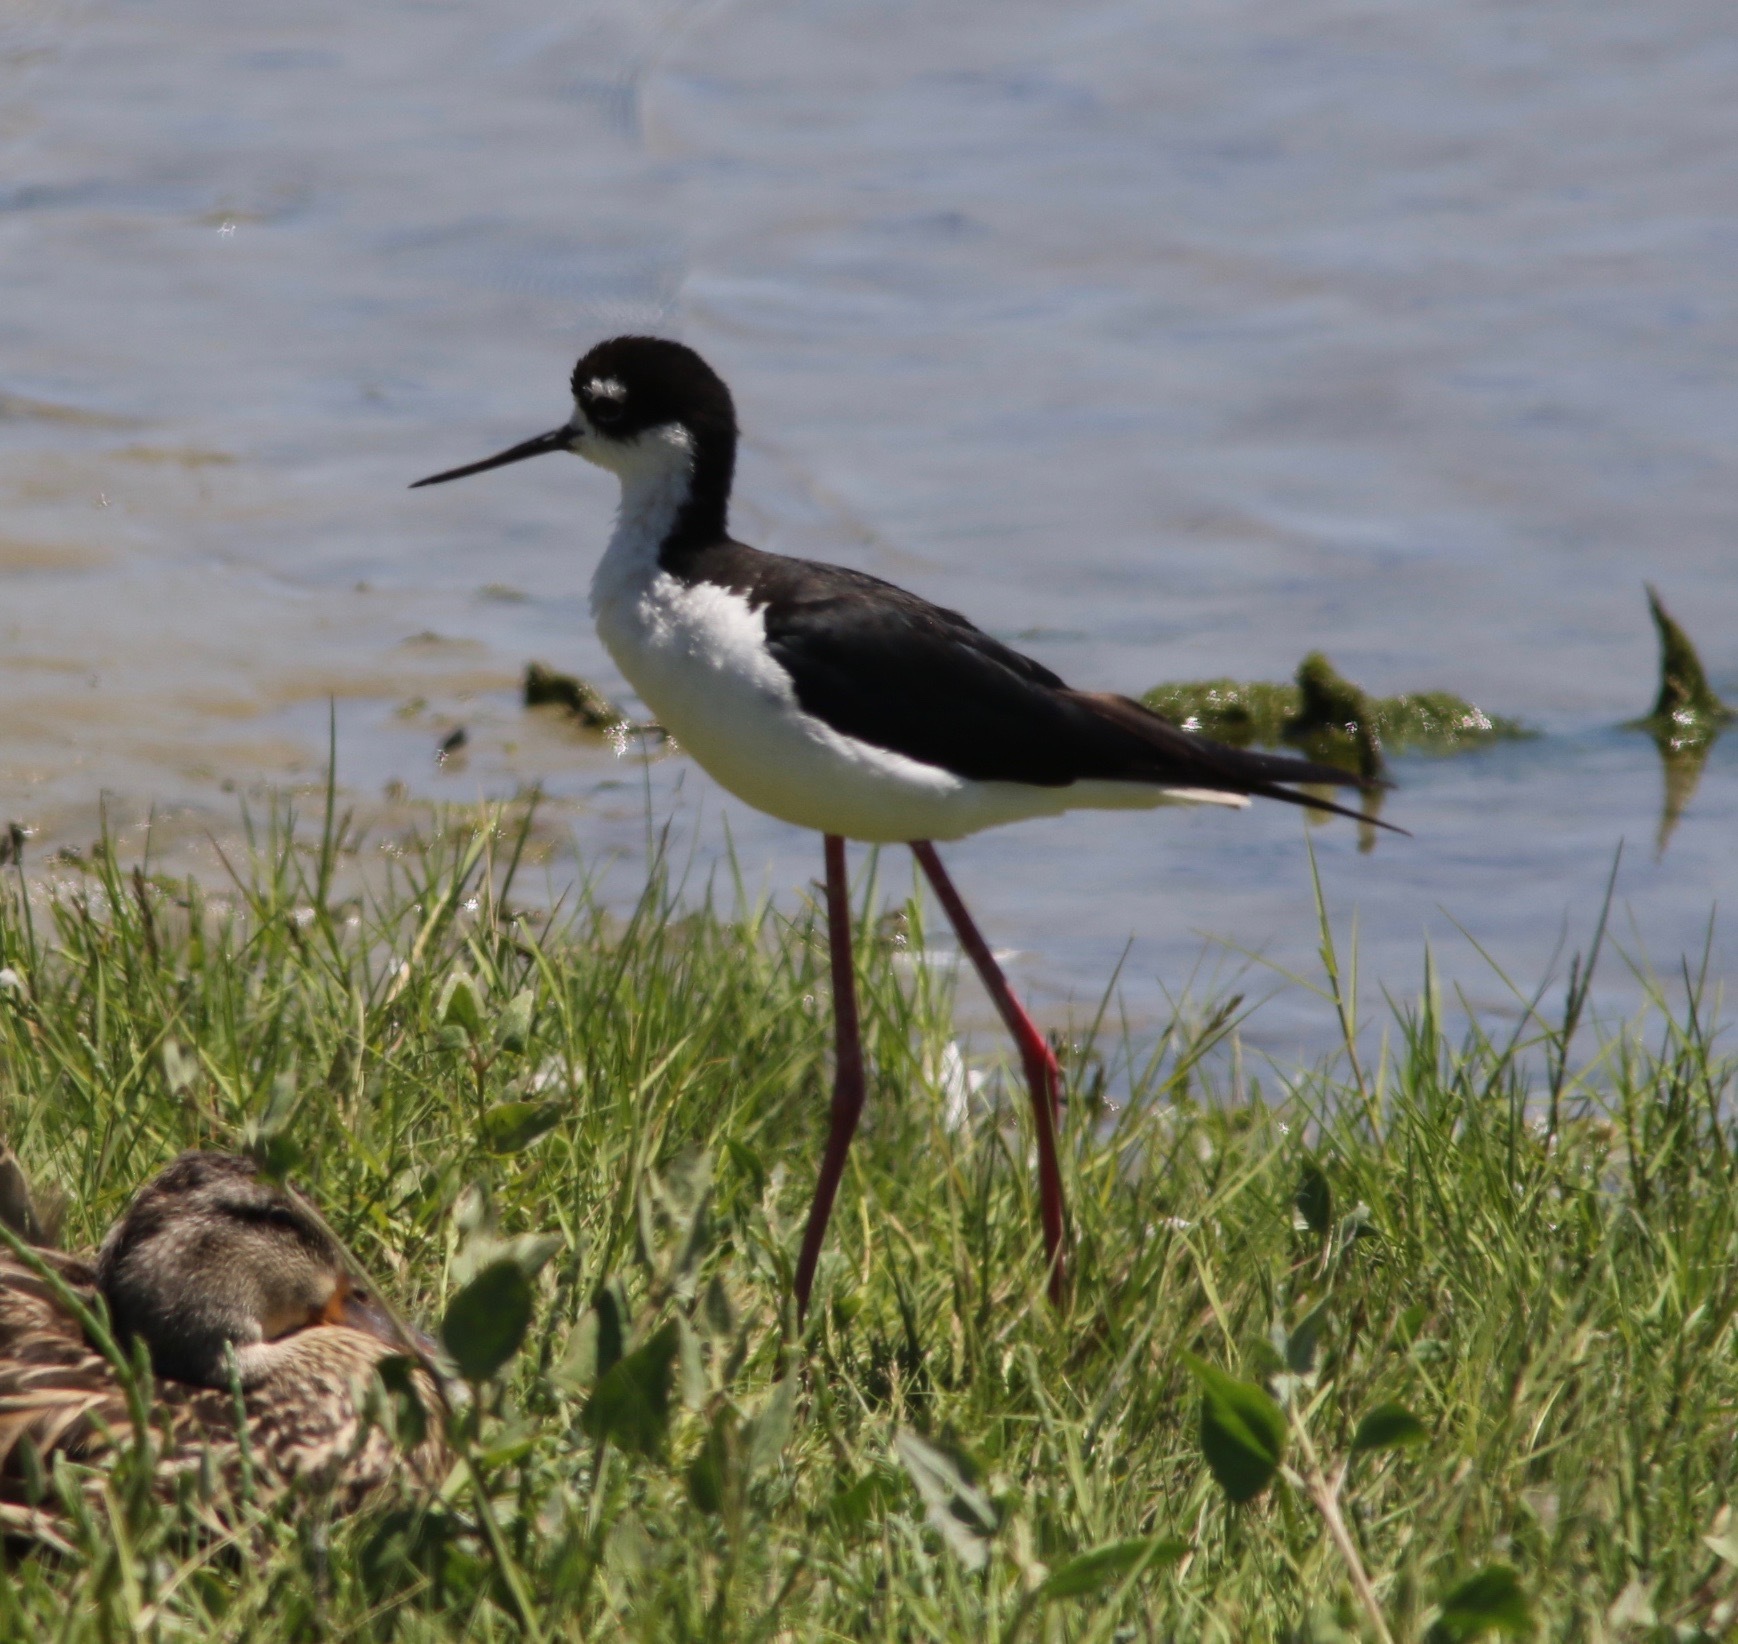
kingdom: Animalia
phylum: Chordata
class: Aves
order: Charadriiformes
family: Recurvirostridae
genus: Himantopus
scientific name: Himantopus mexicanus
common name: Black-necked stilt
